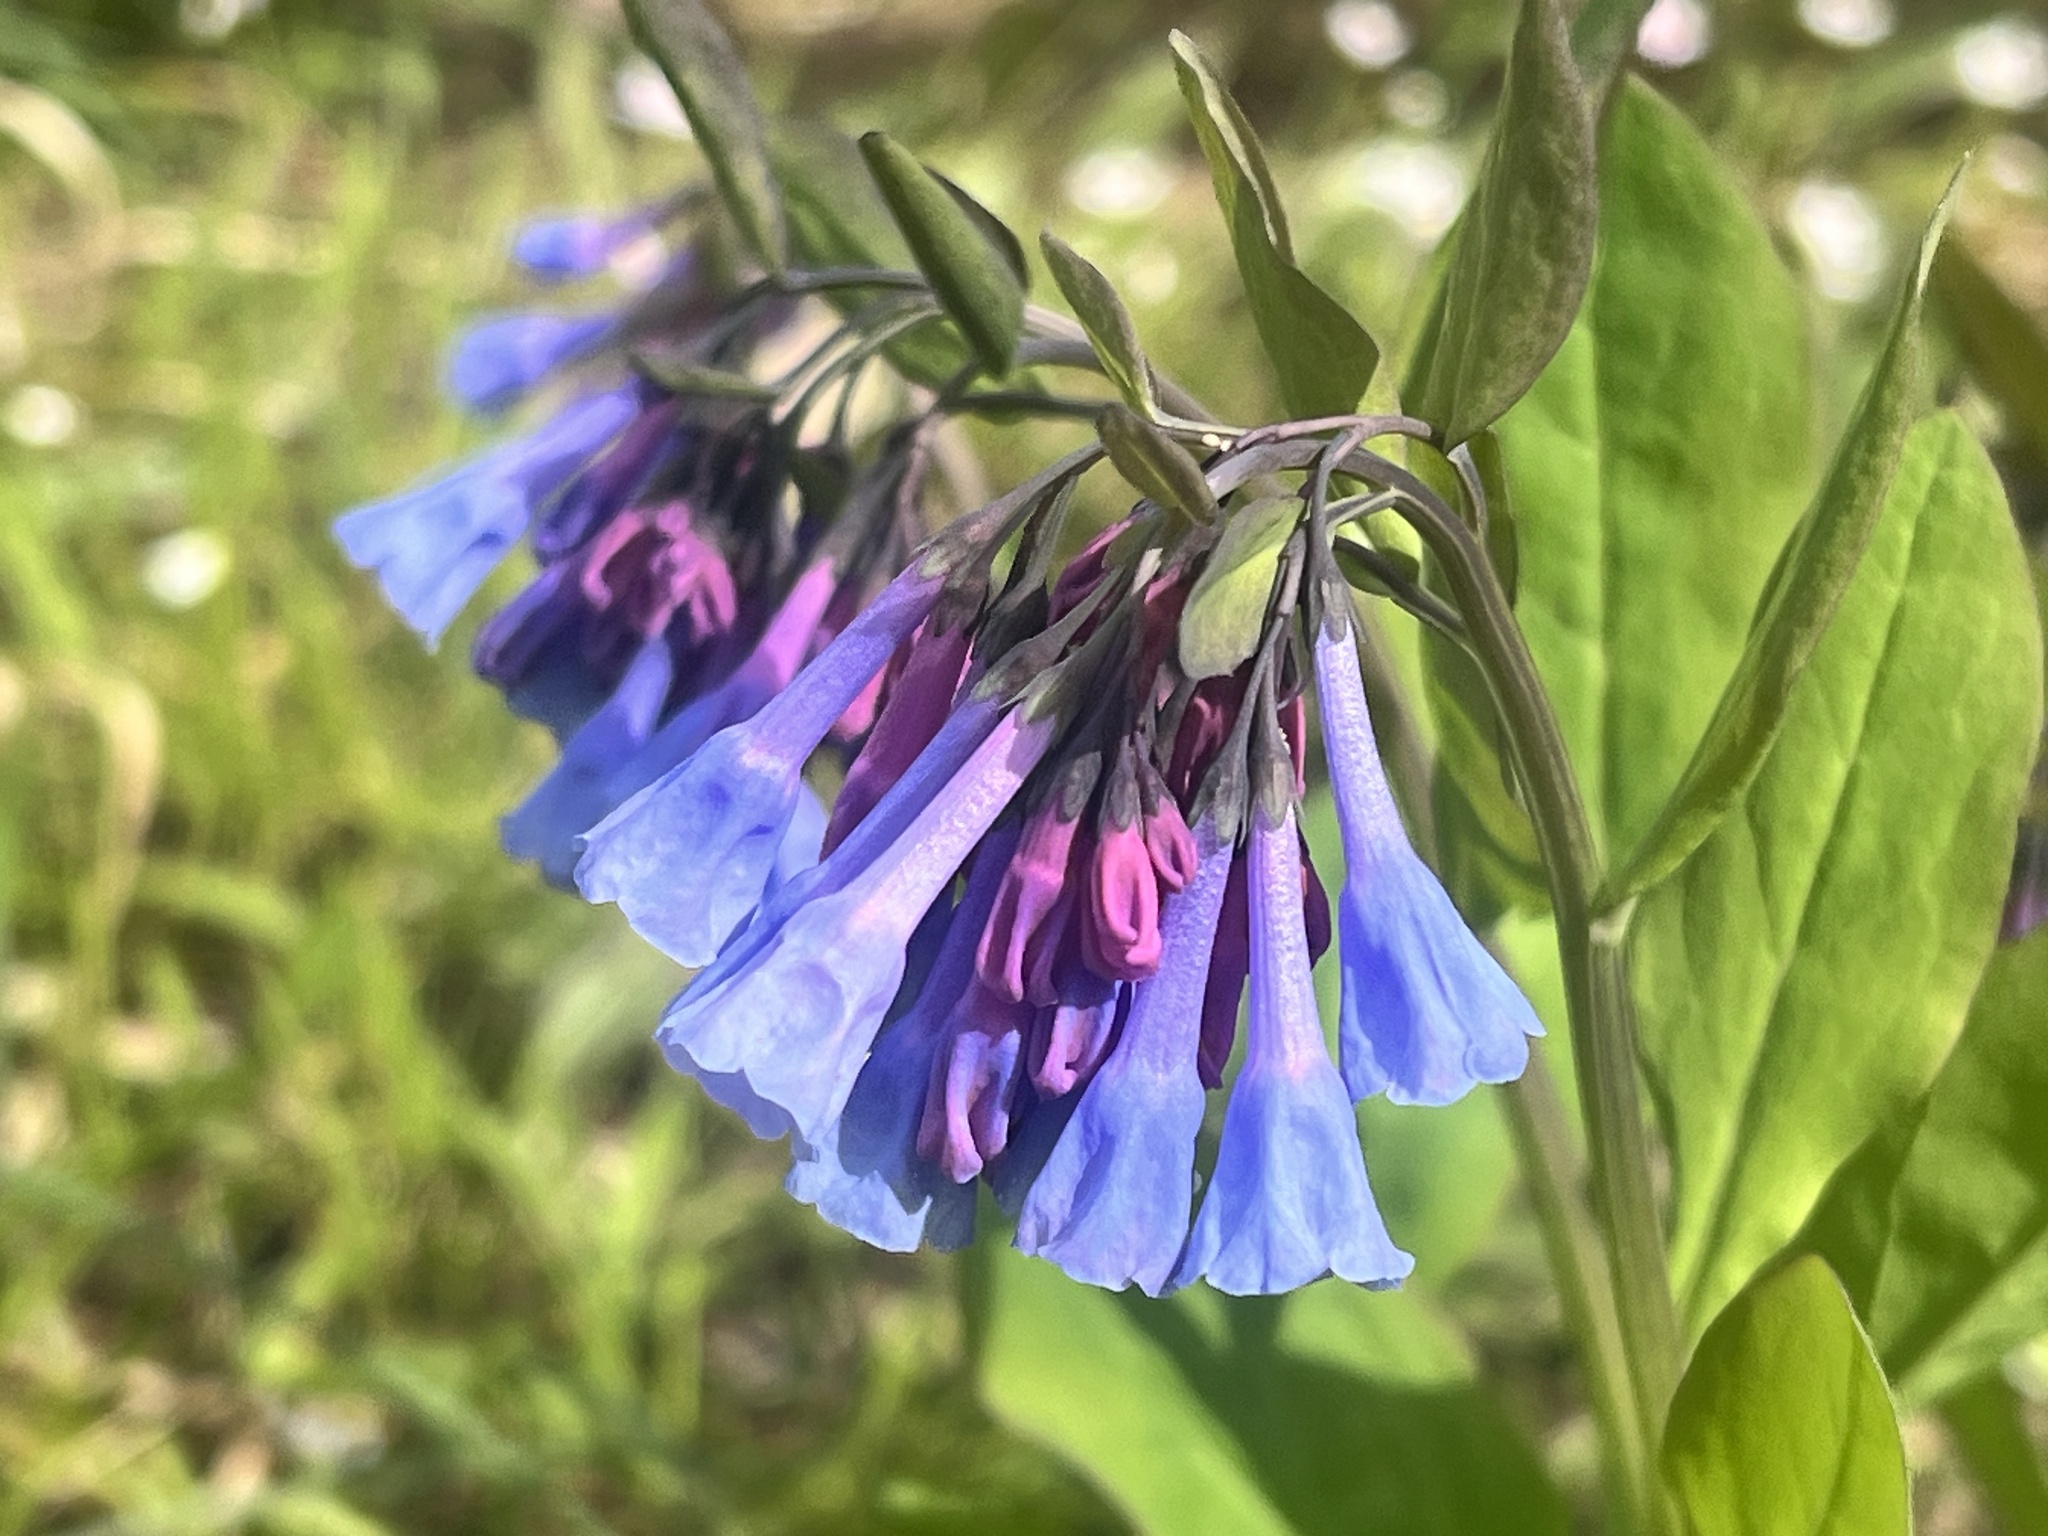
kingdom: Plantae
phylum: Tracheophyta
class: Magnoliopsida
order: Boraginales
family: Boraginaceae
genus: Mertensia
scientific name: Mertensia virginica
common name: Virginia bluebells
